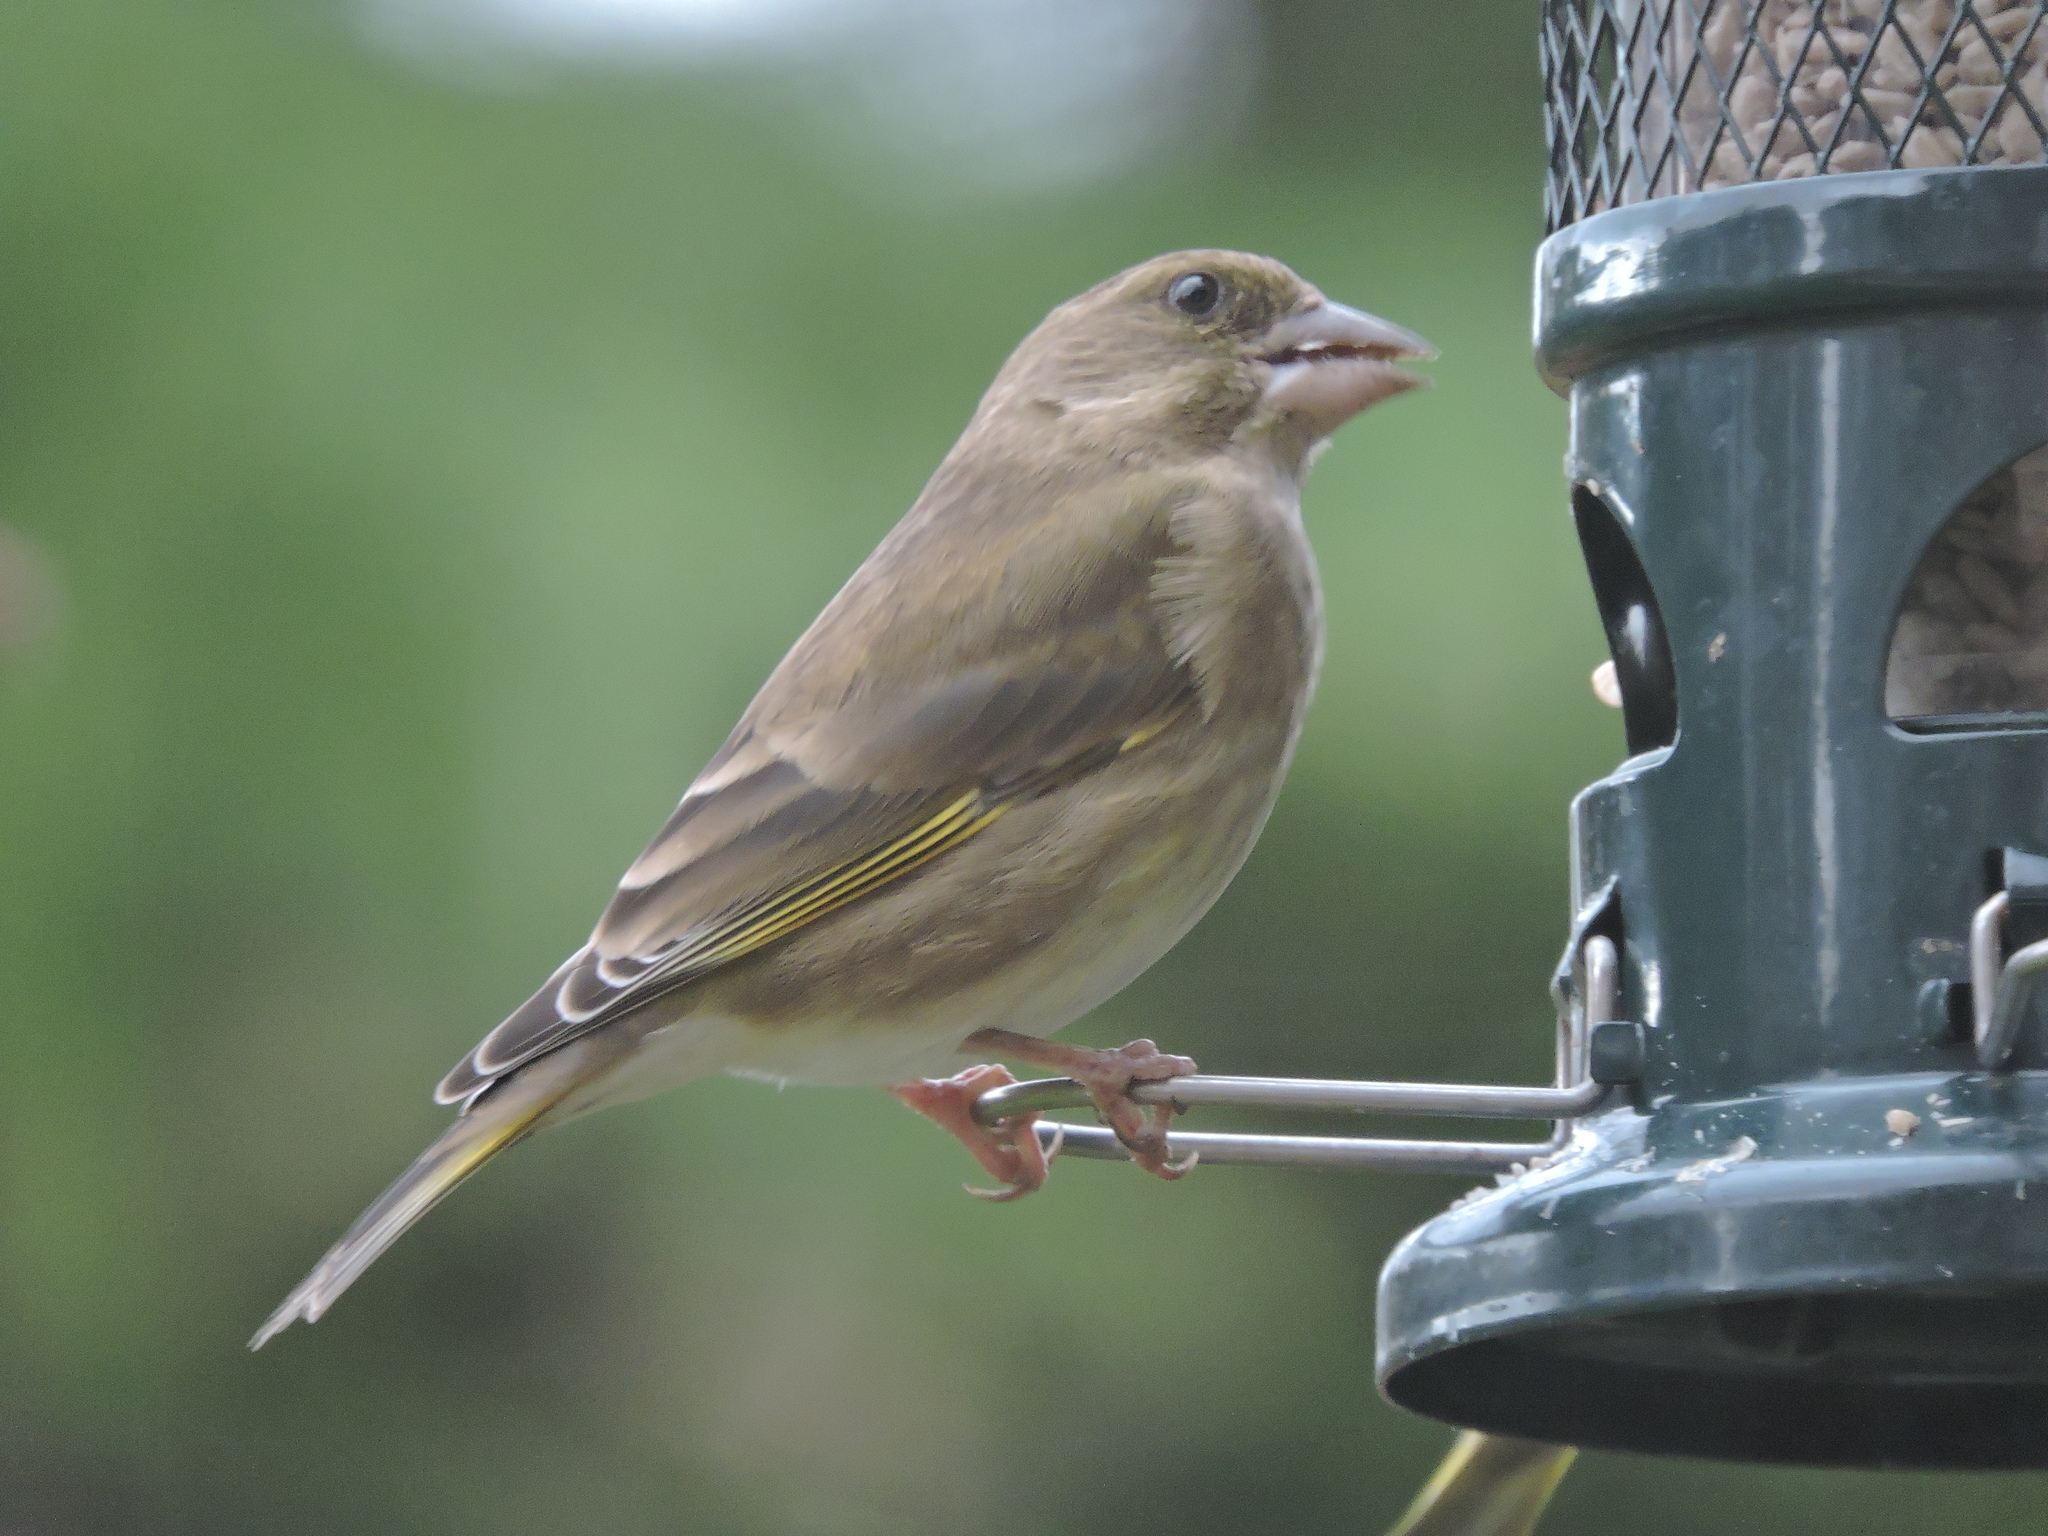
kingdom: Plantae
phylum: Tracheophyta
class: Liliopsida
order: Poales
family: Poaceae
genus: Chloris
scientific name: Chloris chloris
